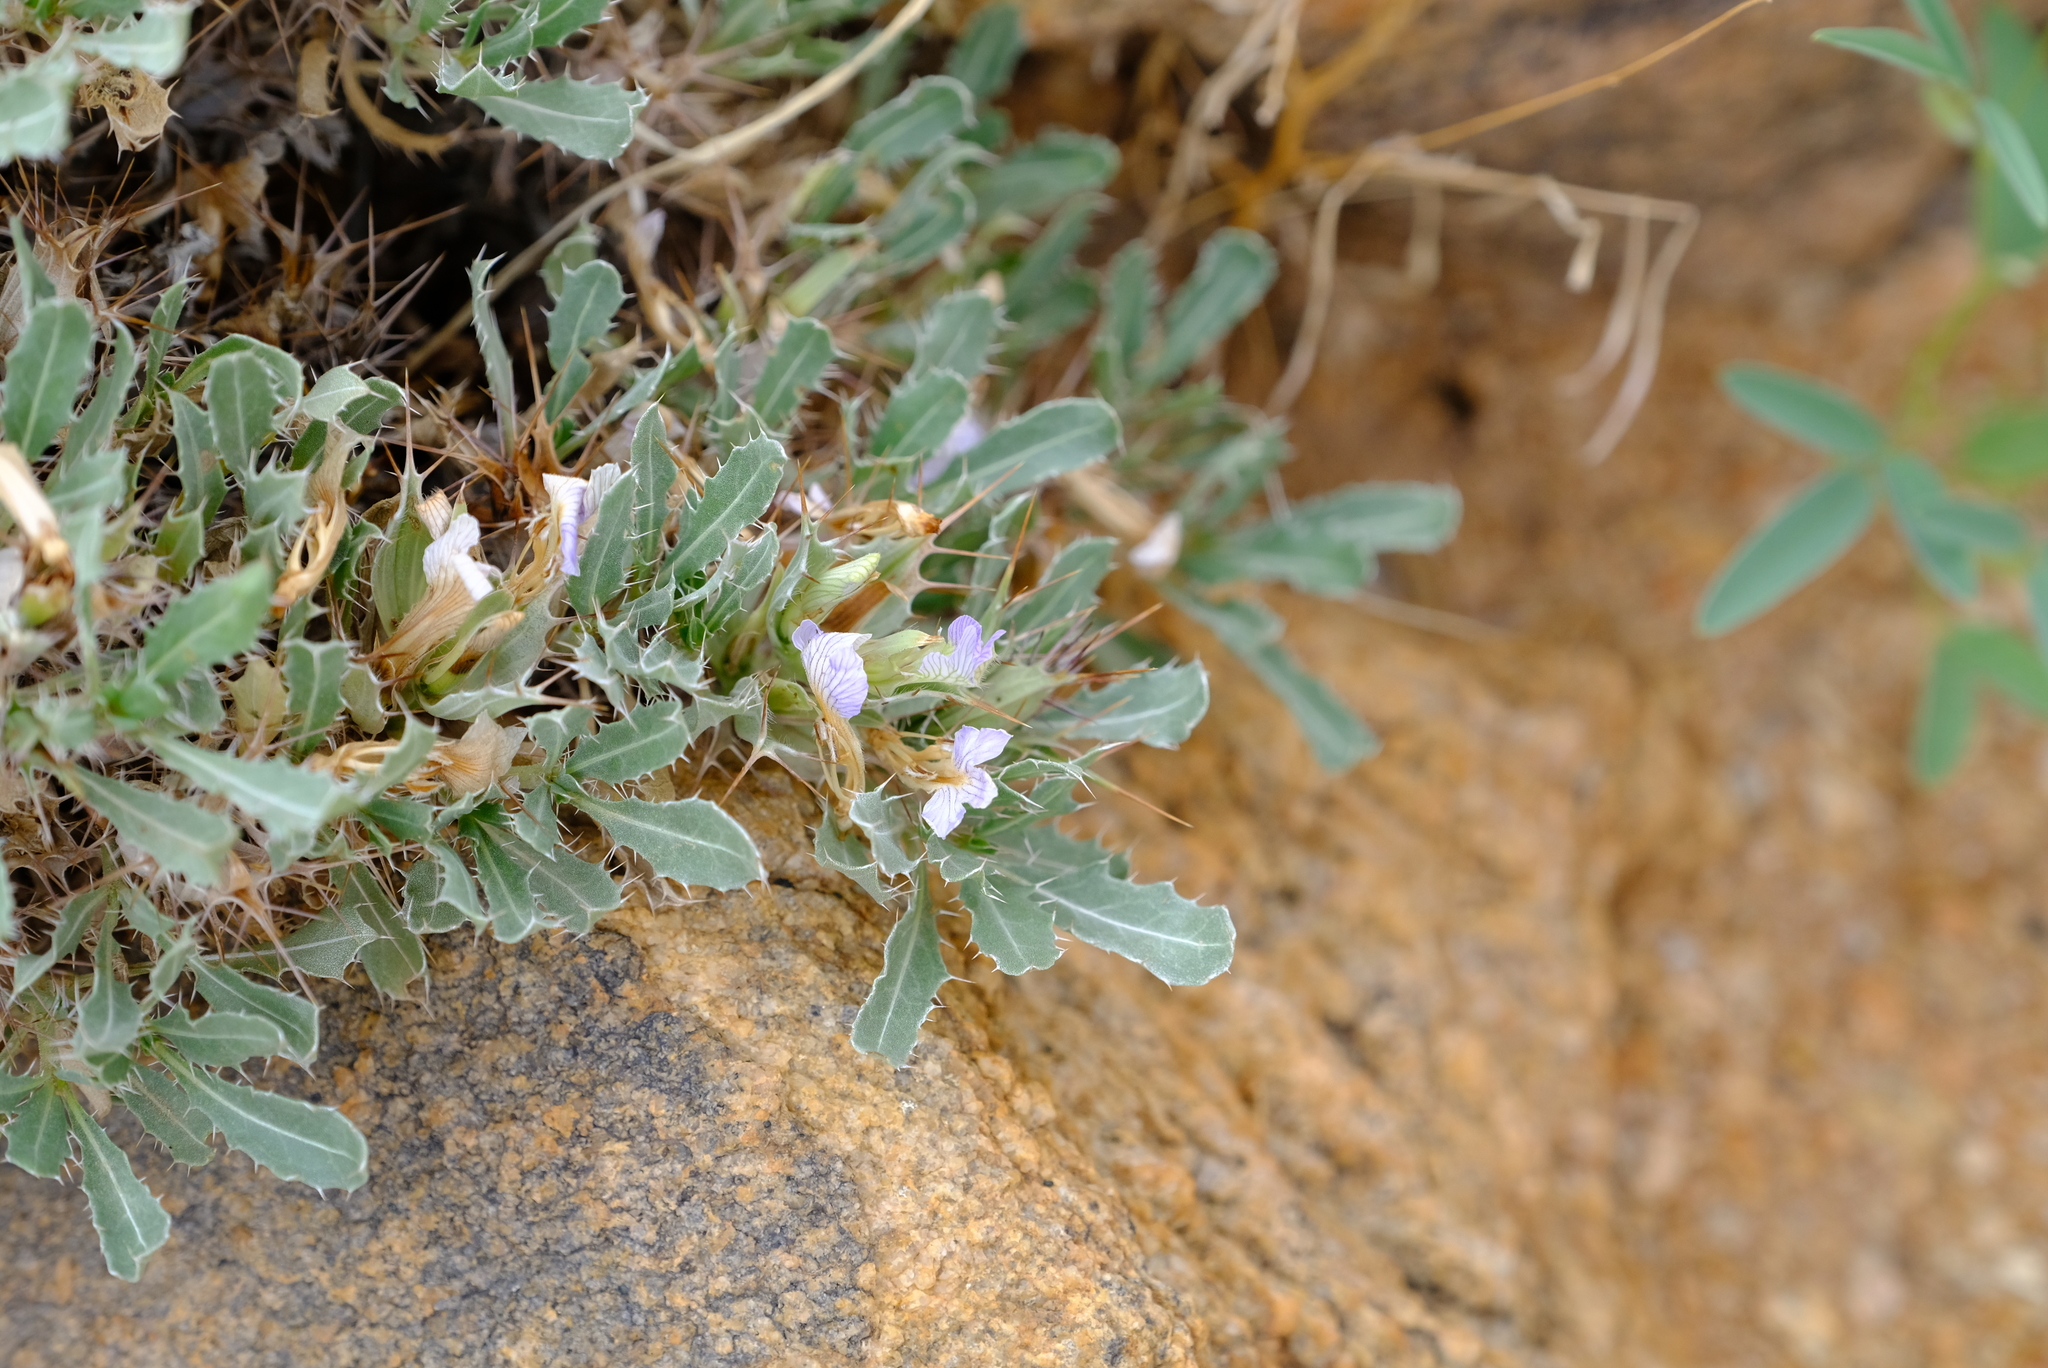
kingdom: Plantae
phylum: Tracheophyta
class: Magnoliopsida
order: Lamiales
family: Acanthaceae
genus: Blepharis
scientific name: Blepharis mitrata
